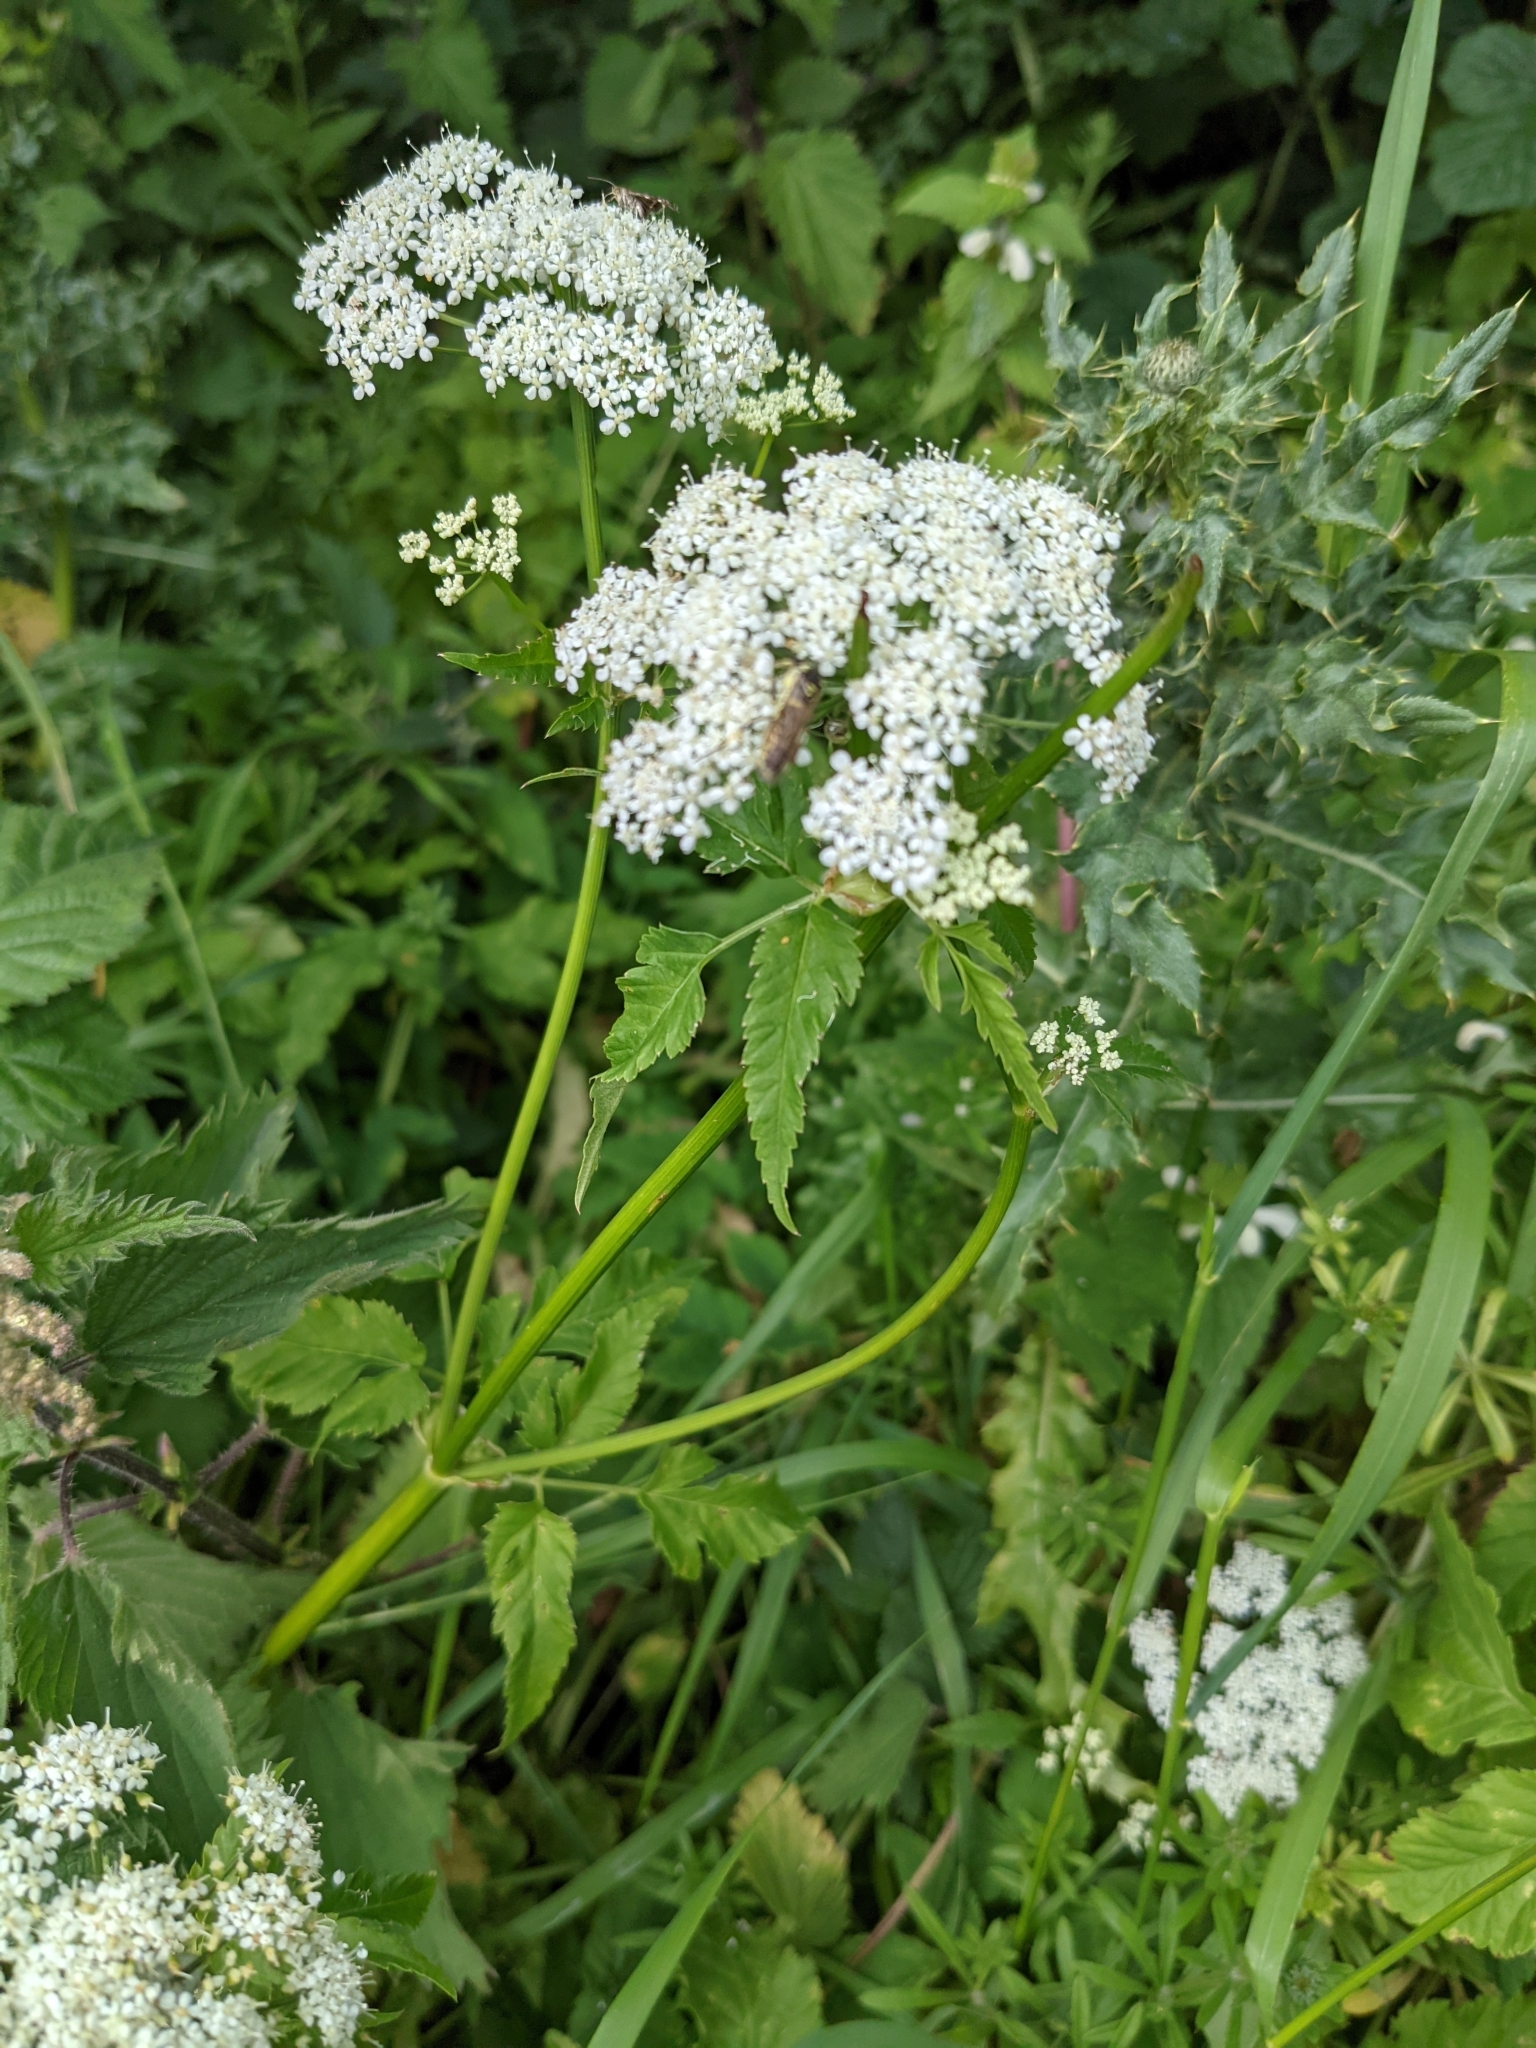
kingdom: Plantae
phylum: Tracheophyta
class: Magnoliopsida
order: Apiales
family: Apiaceae
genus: Aegopodium
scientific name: Aegopodium podagraria
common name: Ground-elder
